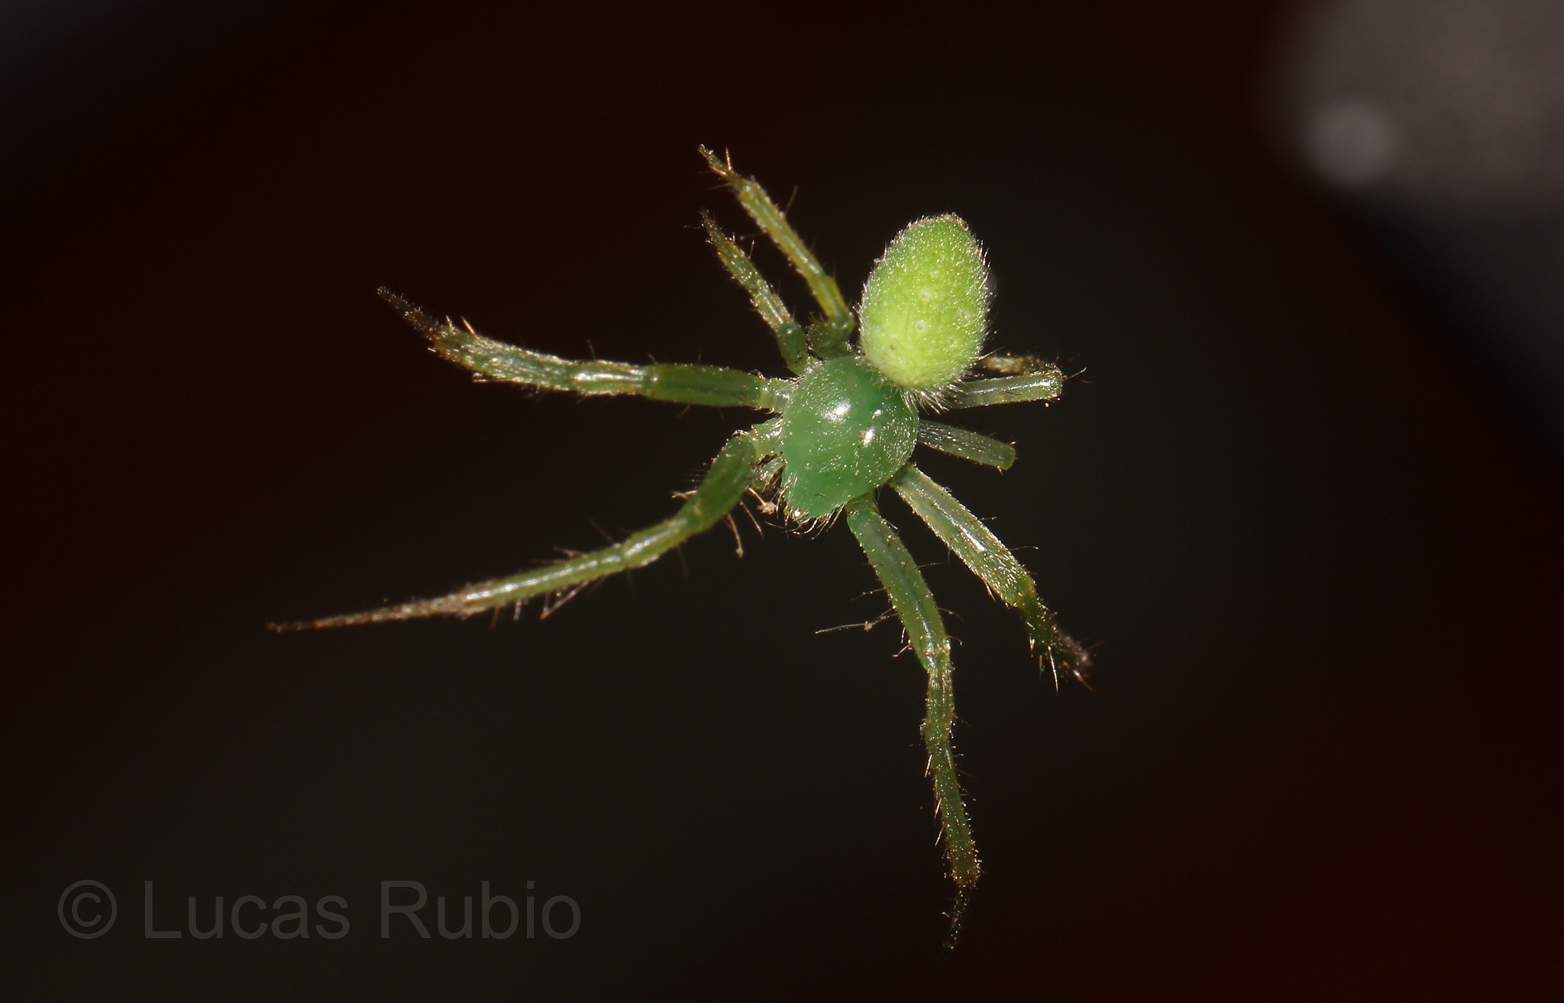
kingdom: Animalia
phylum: Arthropoda
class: Arachnida
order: Araneae
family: Araneidae
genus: Araneus
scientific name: Araneus uniformis
